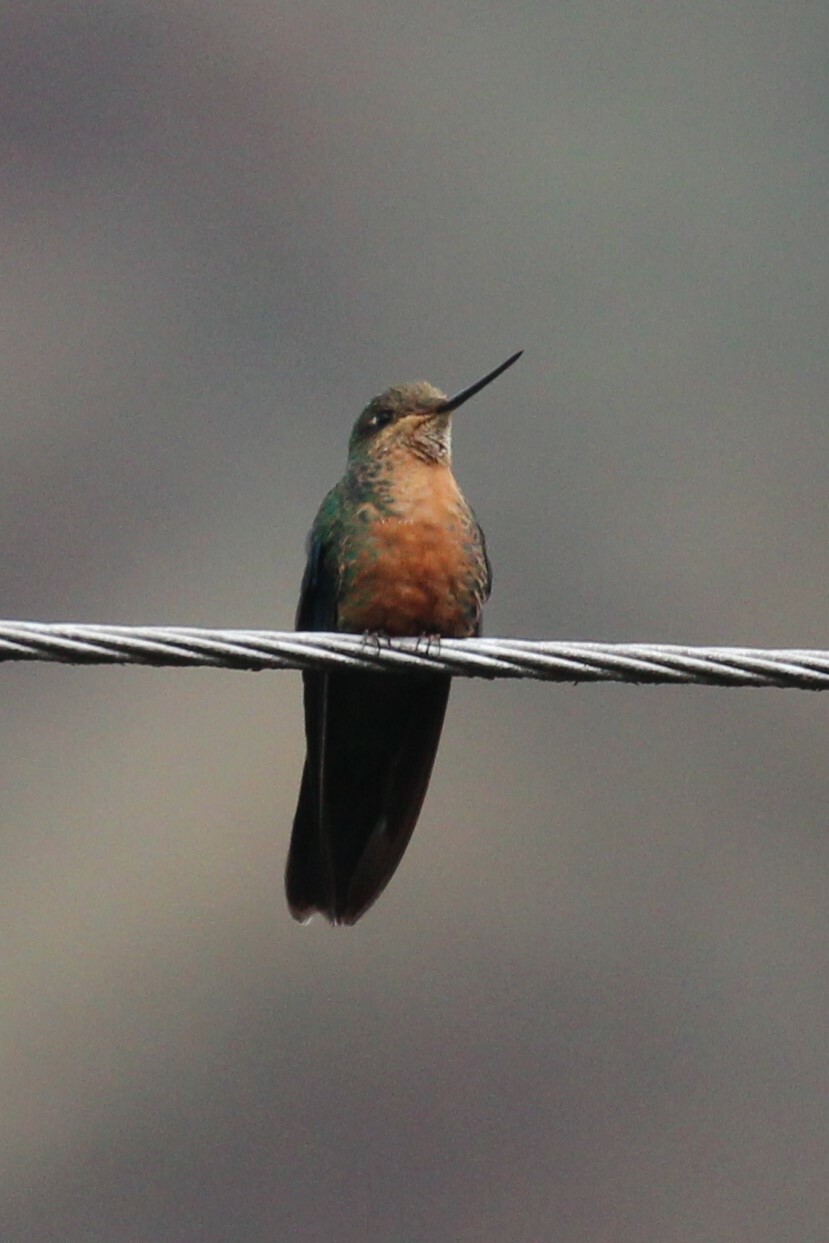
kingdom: Animalia
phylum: Chordata
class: Aves
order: Apodiformes
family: Trochilidae
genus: Pterophanes
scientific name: Pterophanes cyanopterus
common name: Great sapphirewing
